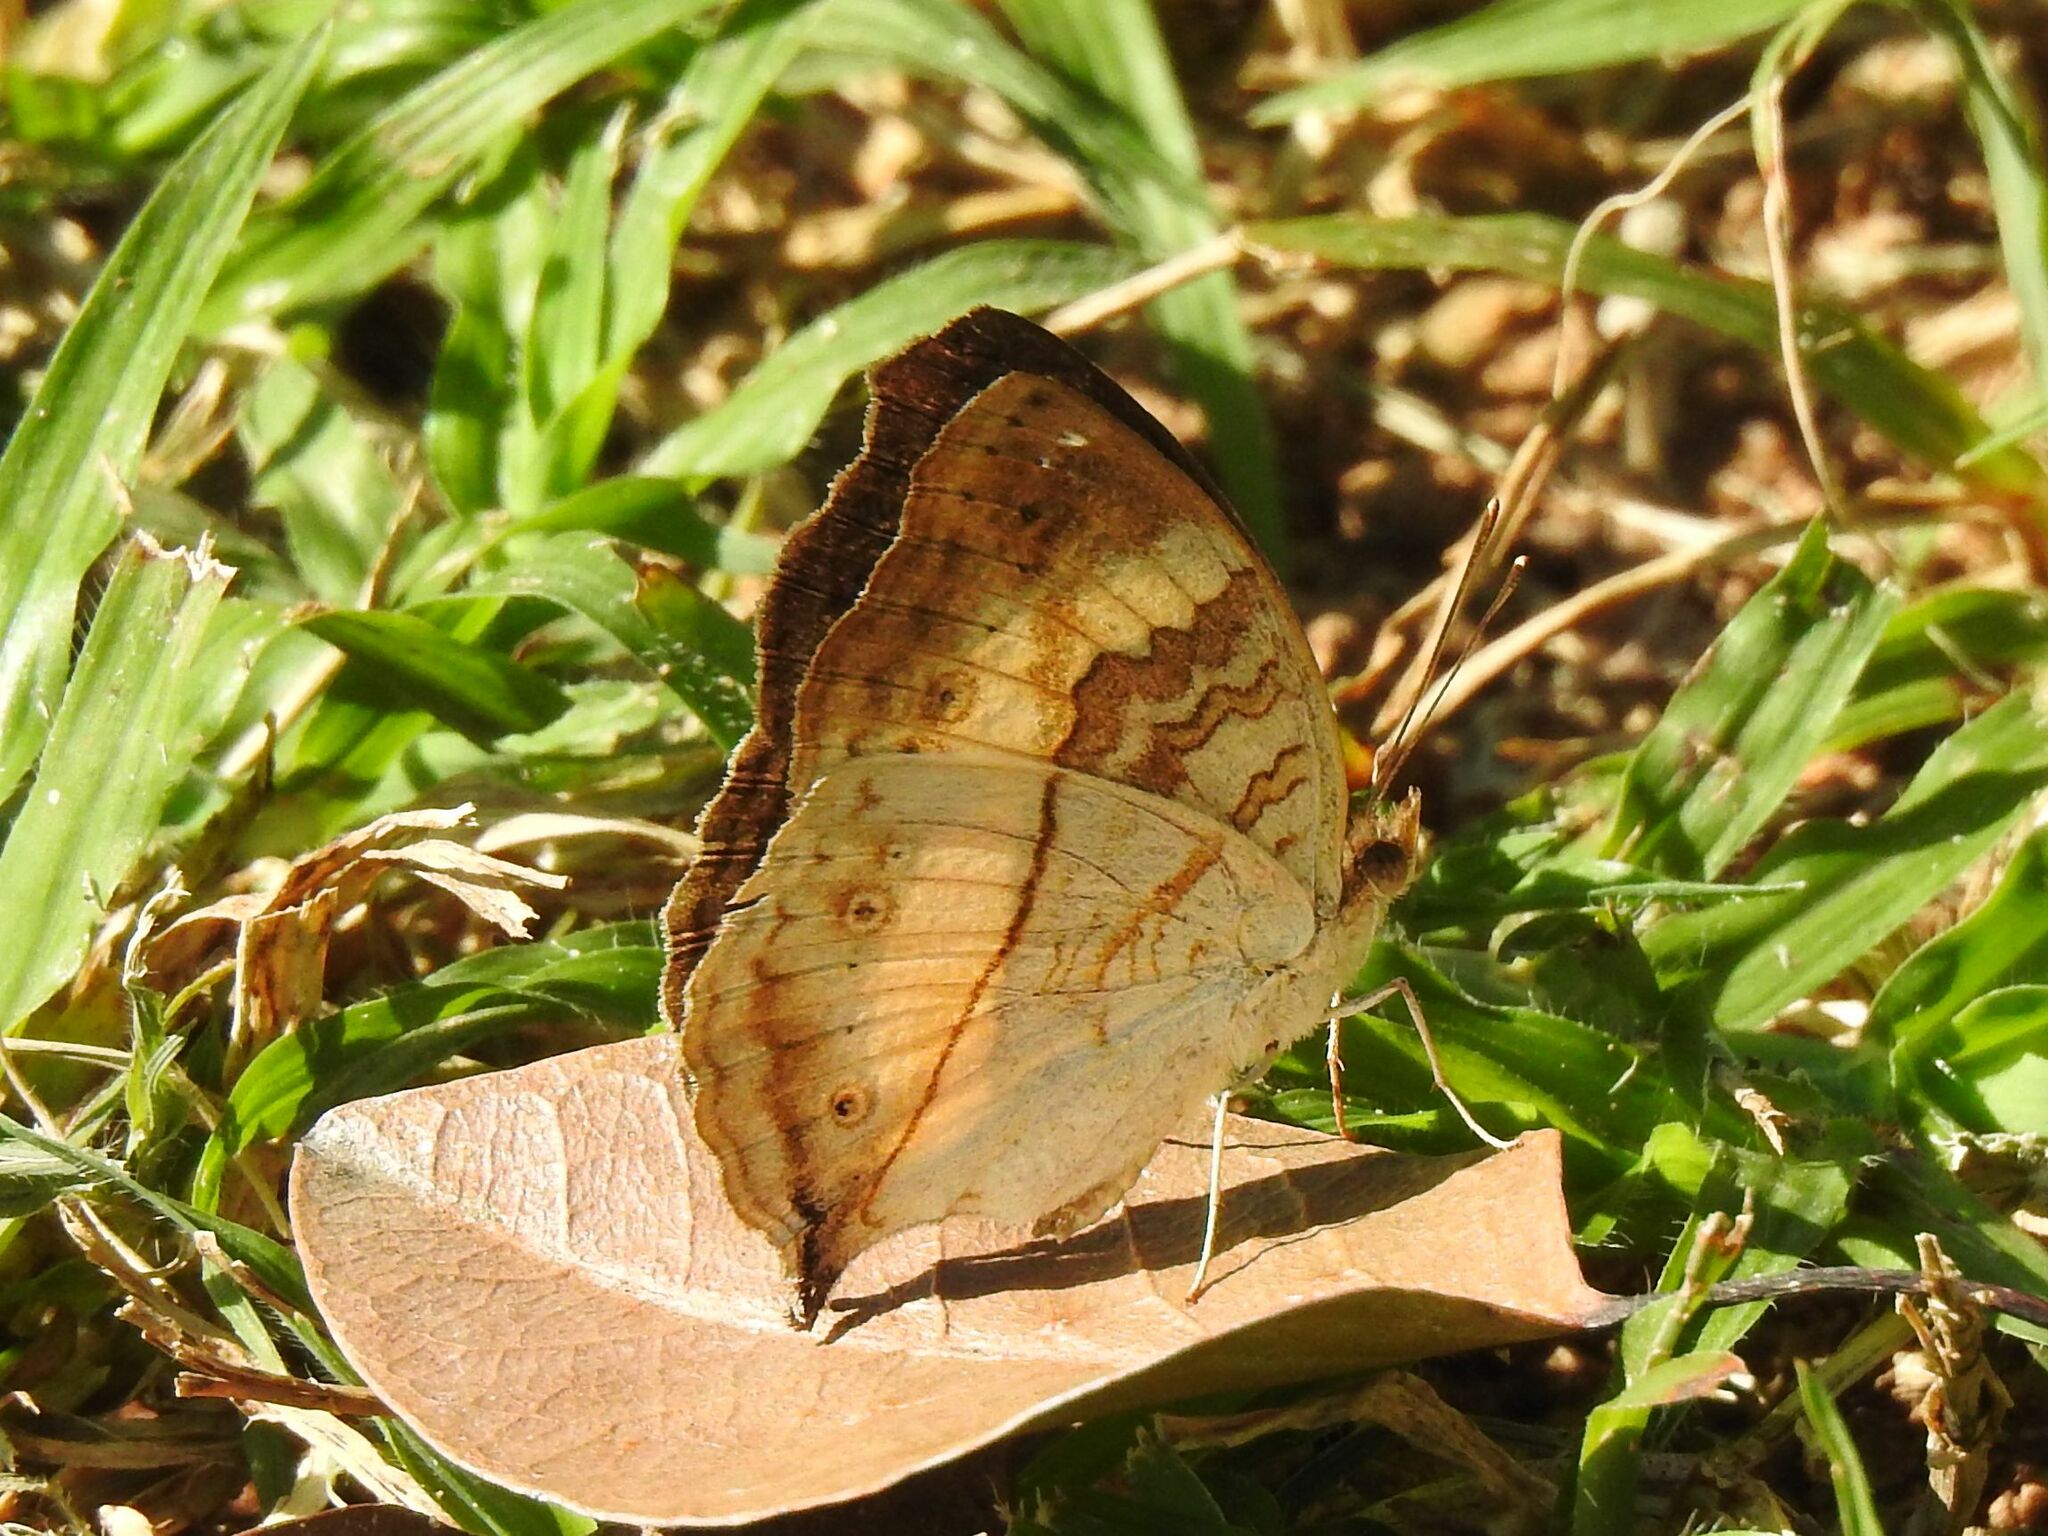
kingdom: Animalia
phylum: Arthropoda
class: Insecta
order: Lepidoptera
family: Nymphalidae
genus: Junonia
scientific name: Junonia terea
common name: Soldier pansy
